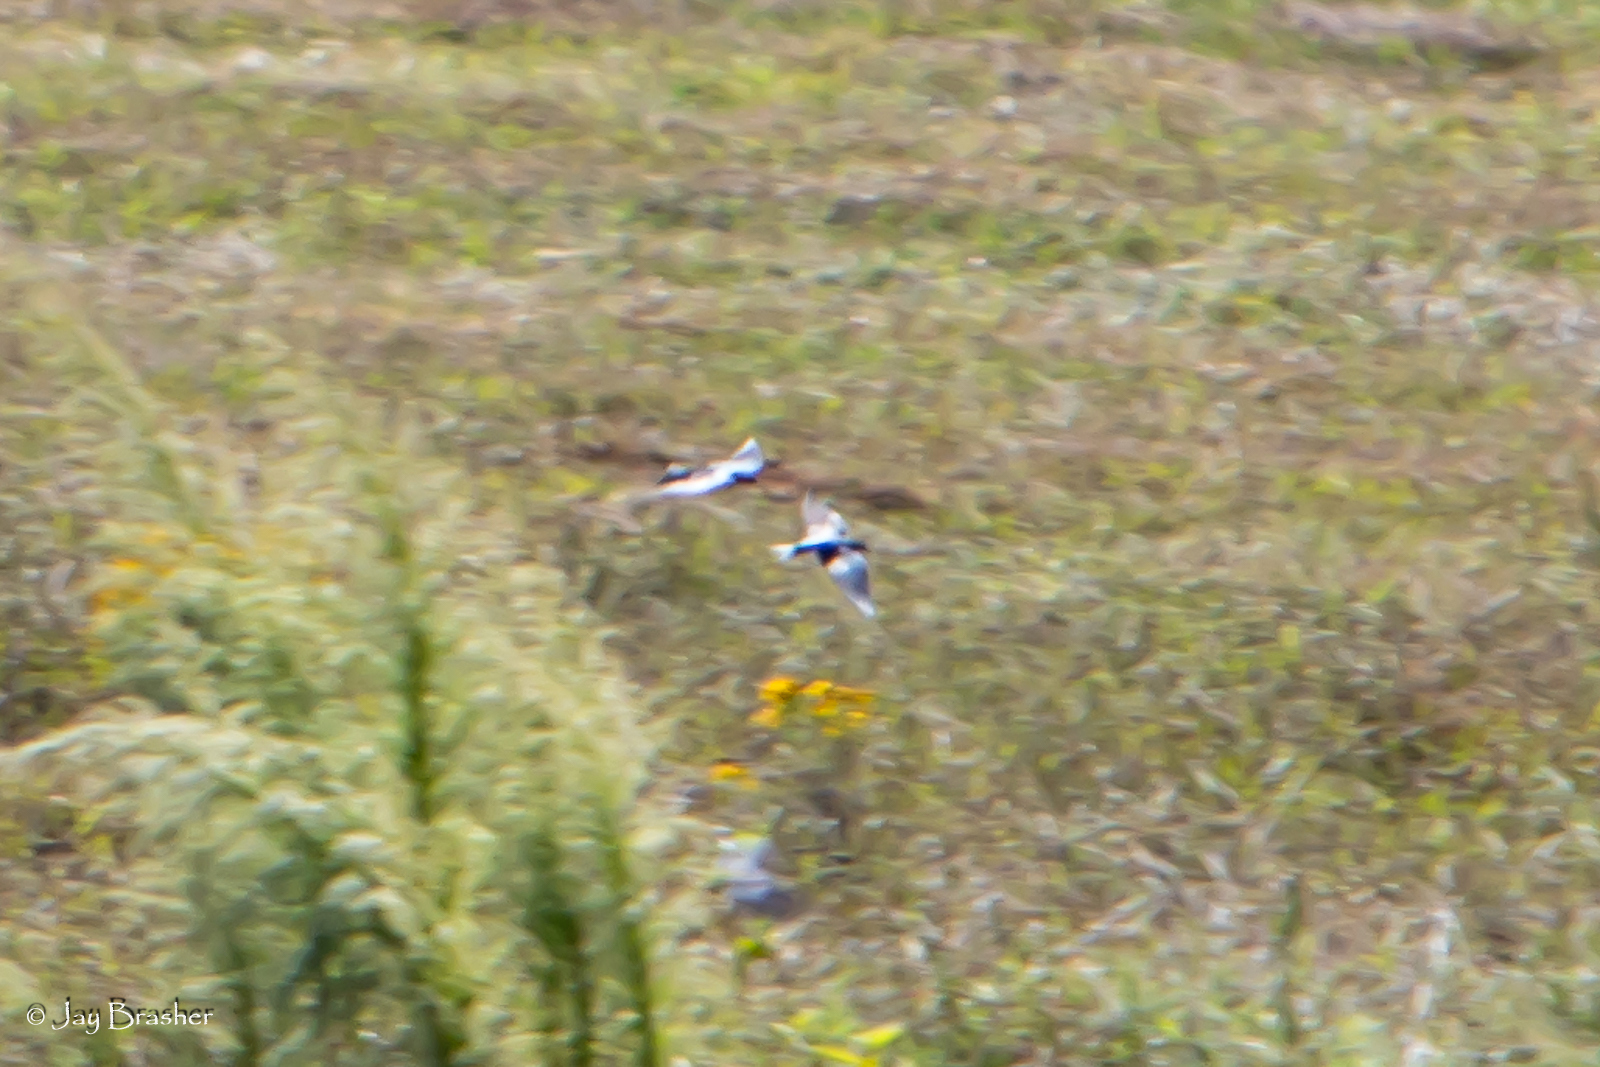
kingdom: Animalia
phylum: Chordata
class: Aves
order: Passeriformes
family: Hirundinidae
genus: Tachycineta
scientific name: Tachycineta bicolor
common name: Tree swallow
